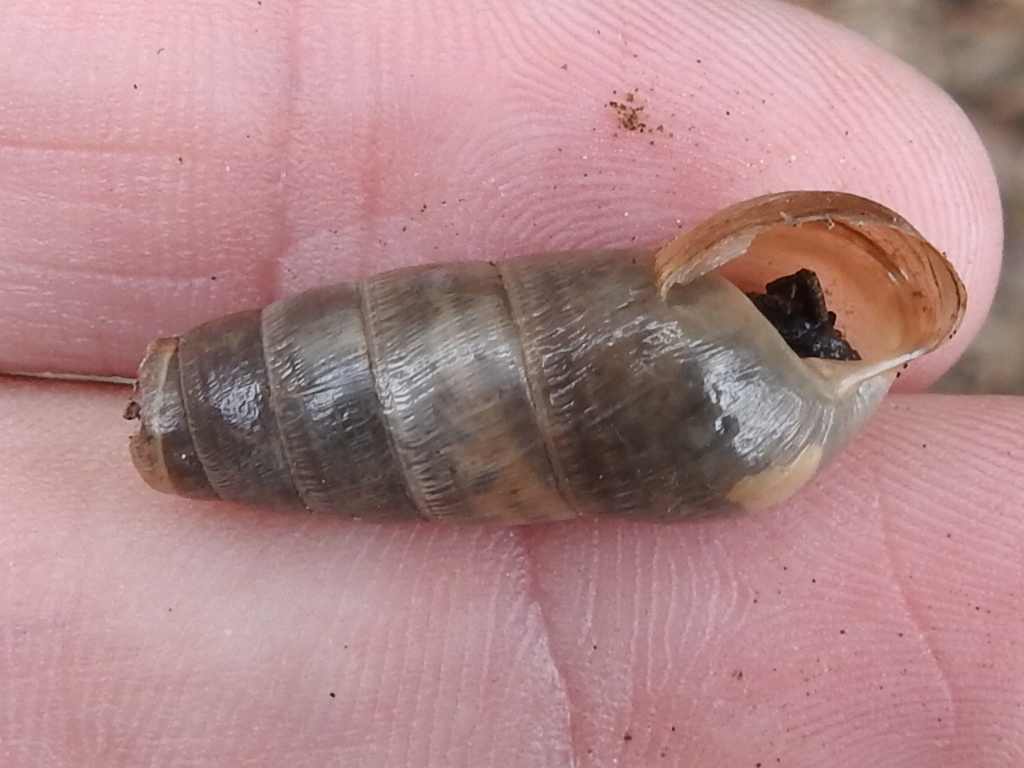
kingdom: Animalia
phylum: Mollusca
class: Gastropoda
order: Stylommatophora
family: Achatinidae
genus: Rumina
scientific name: Rumina decollata
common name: Decollate snail
